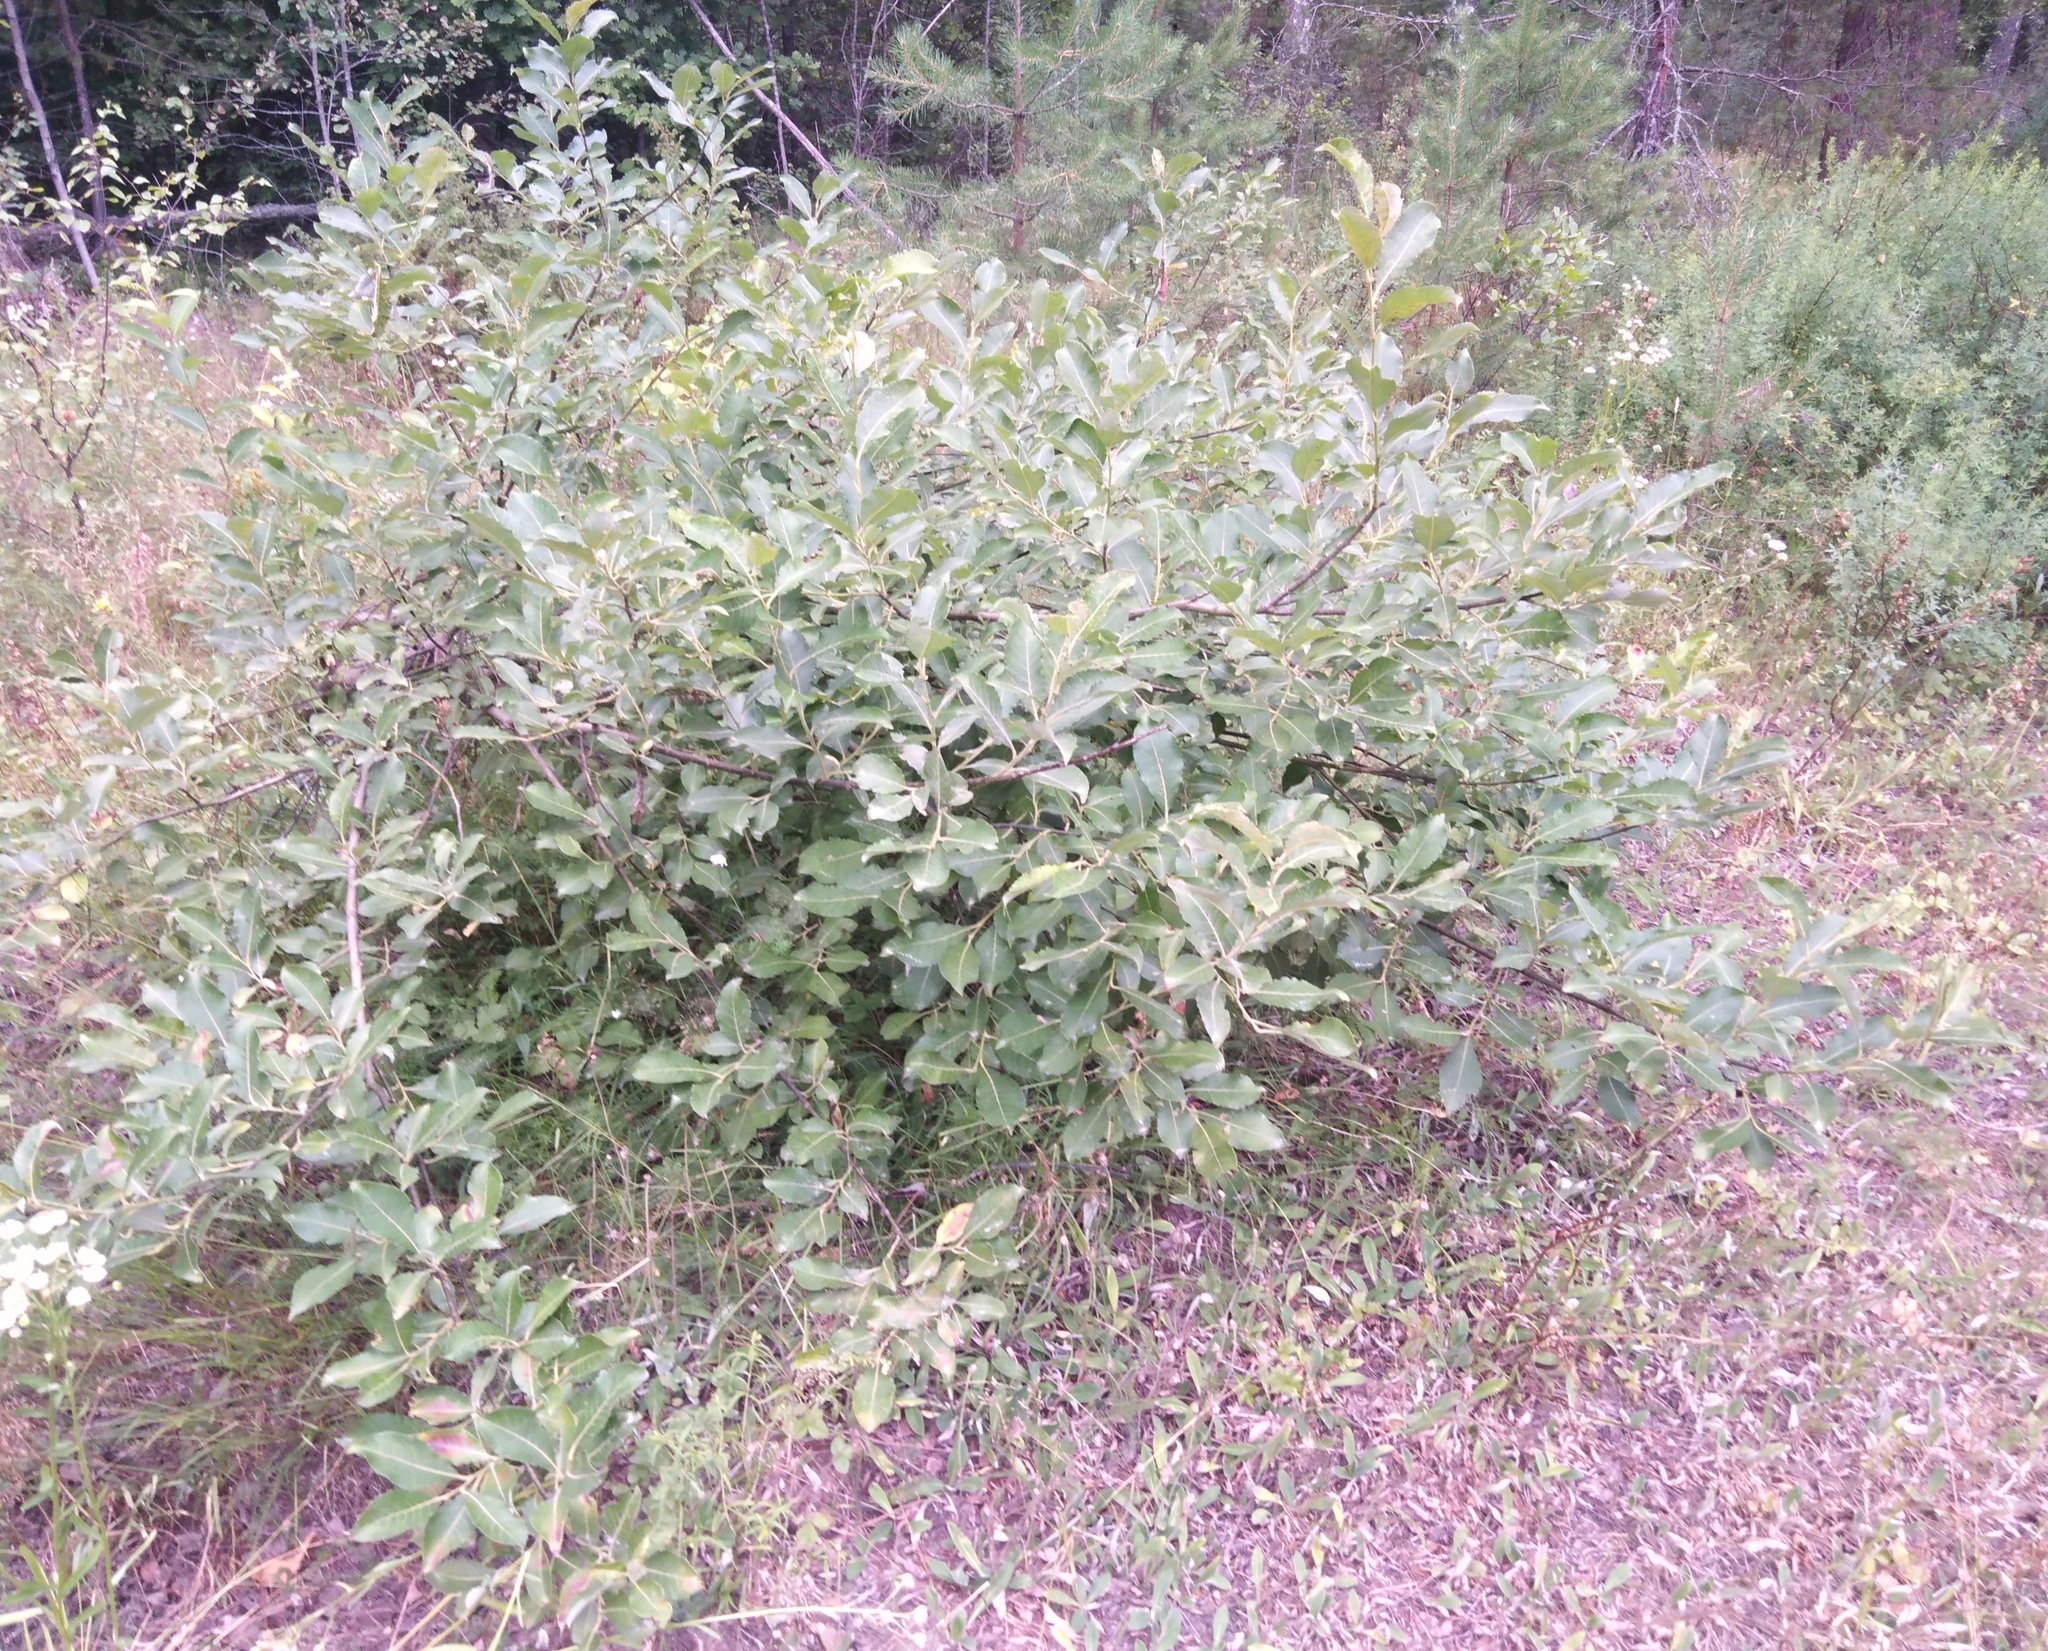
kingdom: Plantae
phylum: Tracheophyta
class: Magnoliopsida
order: Malpighiales
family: Salicaceae
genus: Salix
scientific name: Salix caprea
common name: Goat willow
